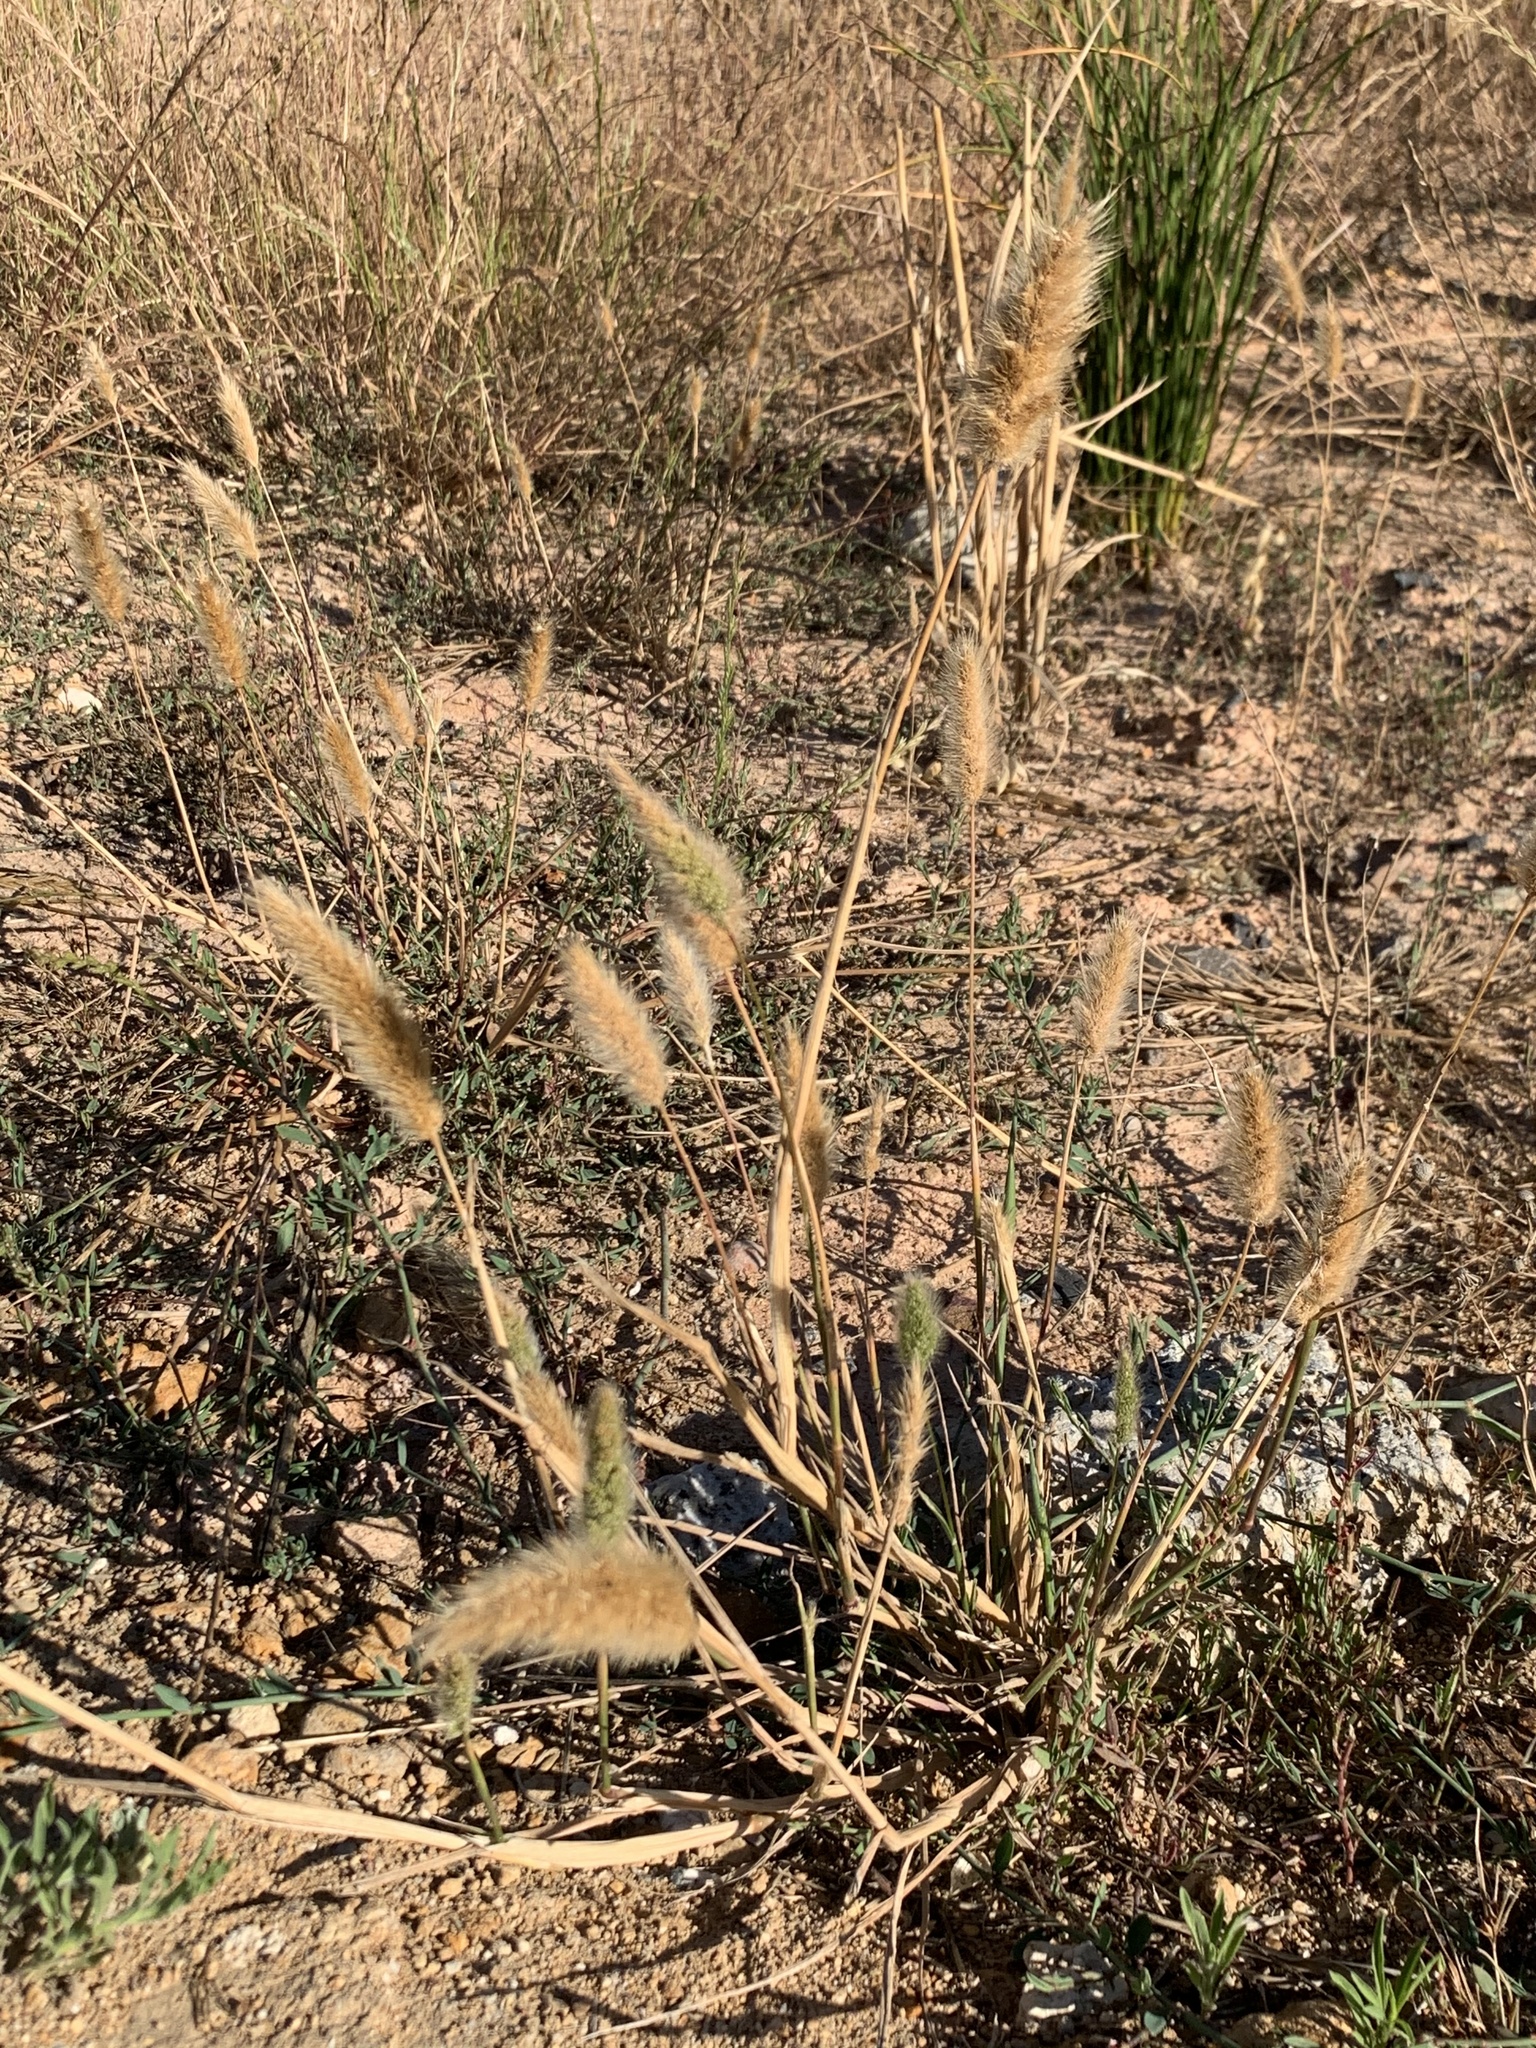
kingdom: Plantae
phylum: Tracheophyta
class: Liliopsida
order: Poales
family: Poaceae
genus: Polypogon
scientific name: Polypogon monspeliensis
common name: Annual rabbitsfoot grass
